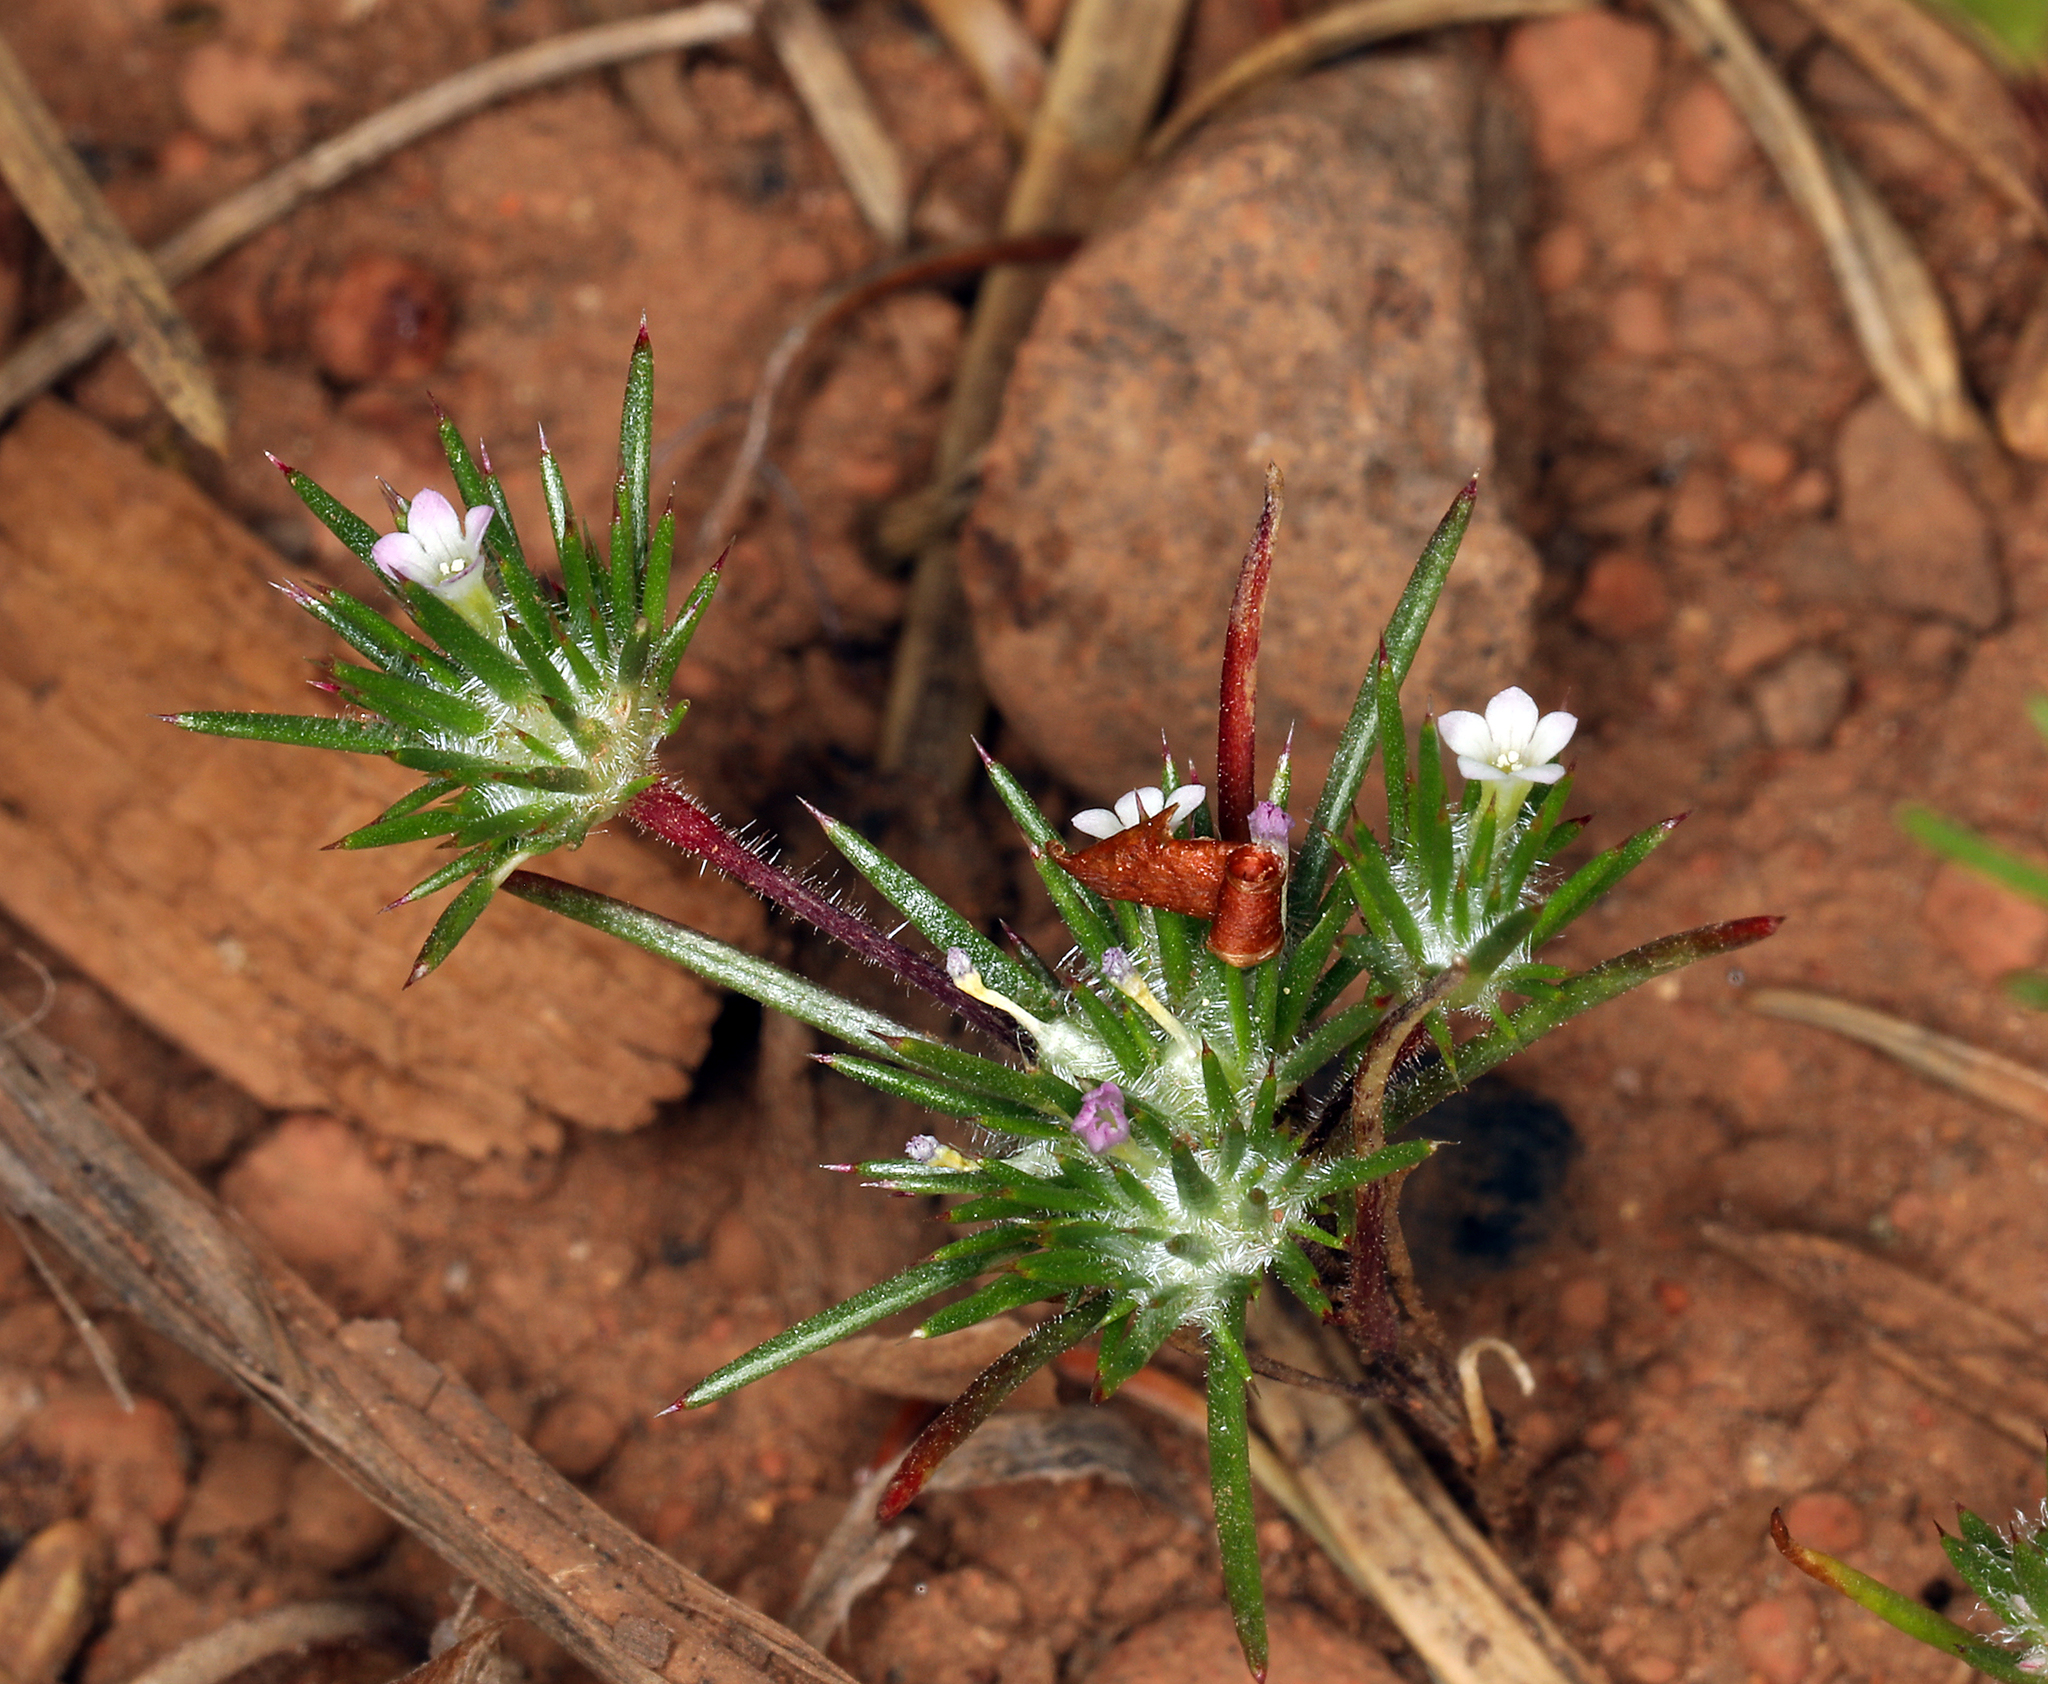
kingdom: Plantae
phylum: Tracheophyta
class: Magnoliopsida
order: Ericales
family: Polemoniaceae
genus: Navarretia
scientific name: Navarretia divaricata
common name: Mountain navarretia
